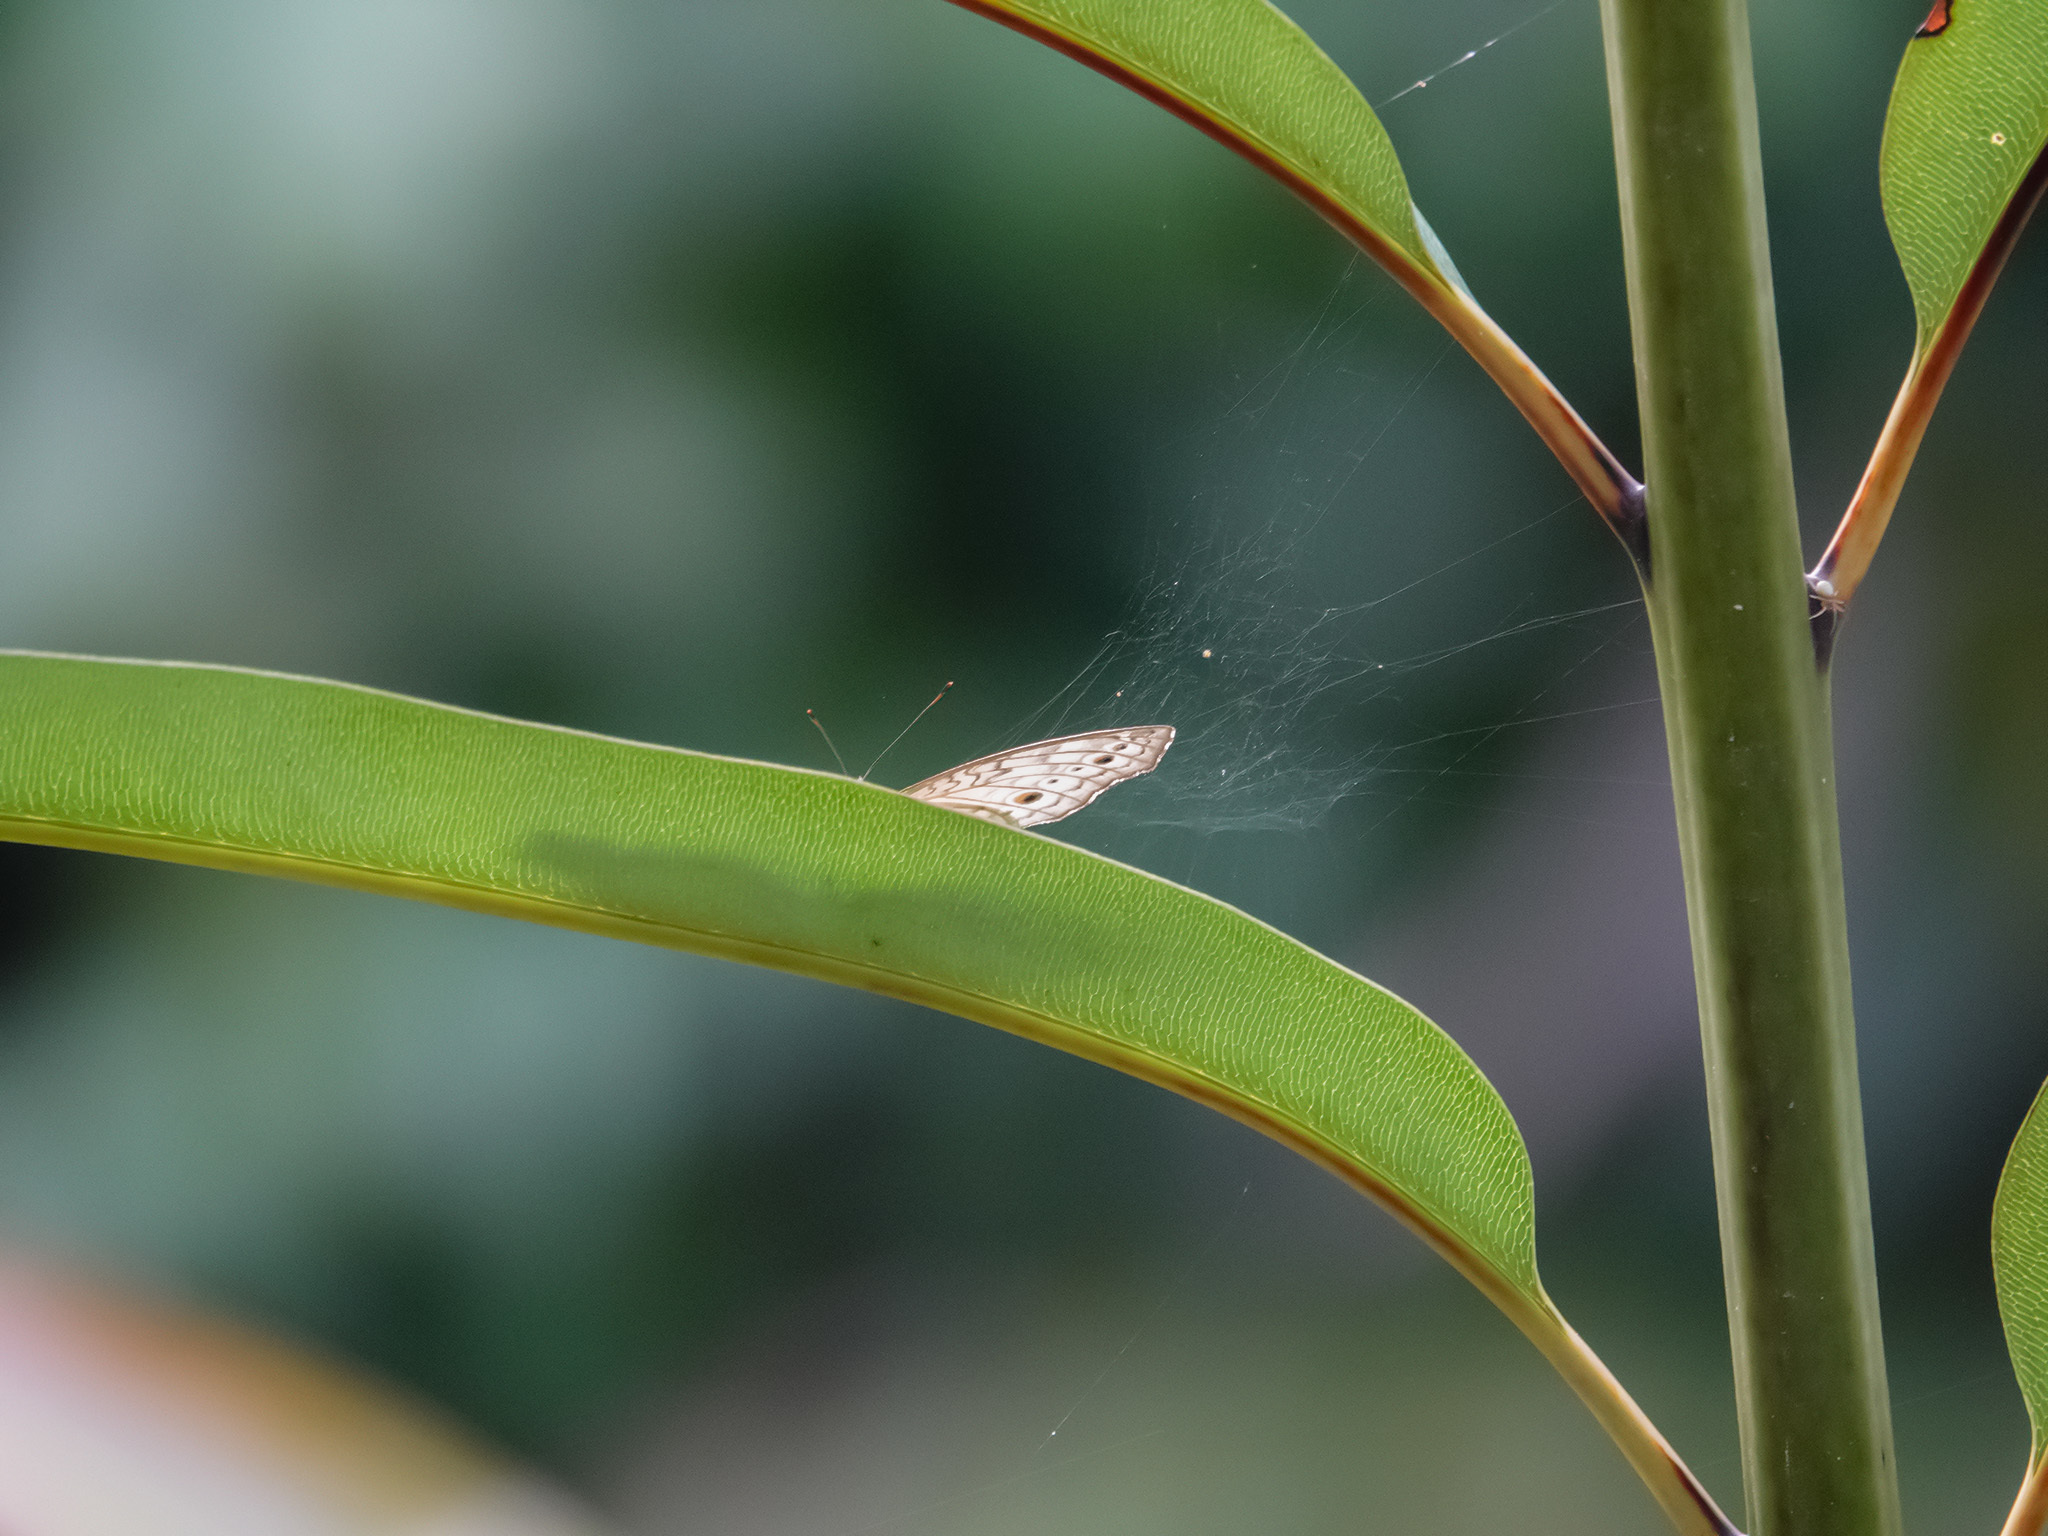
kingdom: Animalia
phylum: Arthropoda
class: Insecta
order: Lepidoptera
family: Nymphalidae
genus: Junonia
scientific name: Junonia atlites
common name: Grey pansy
